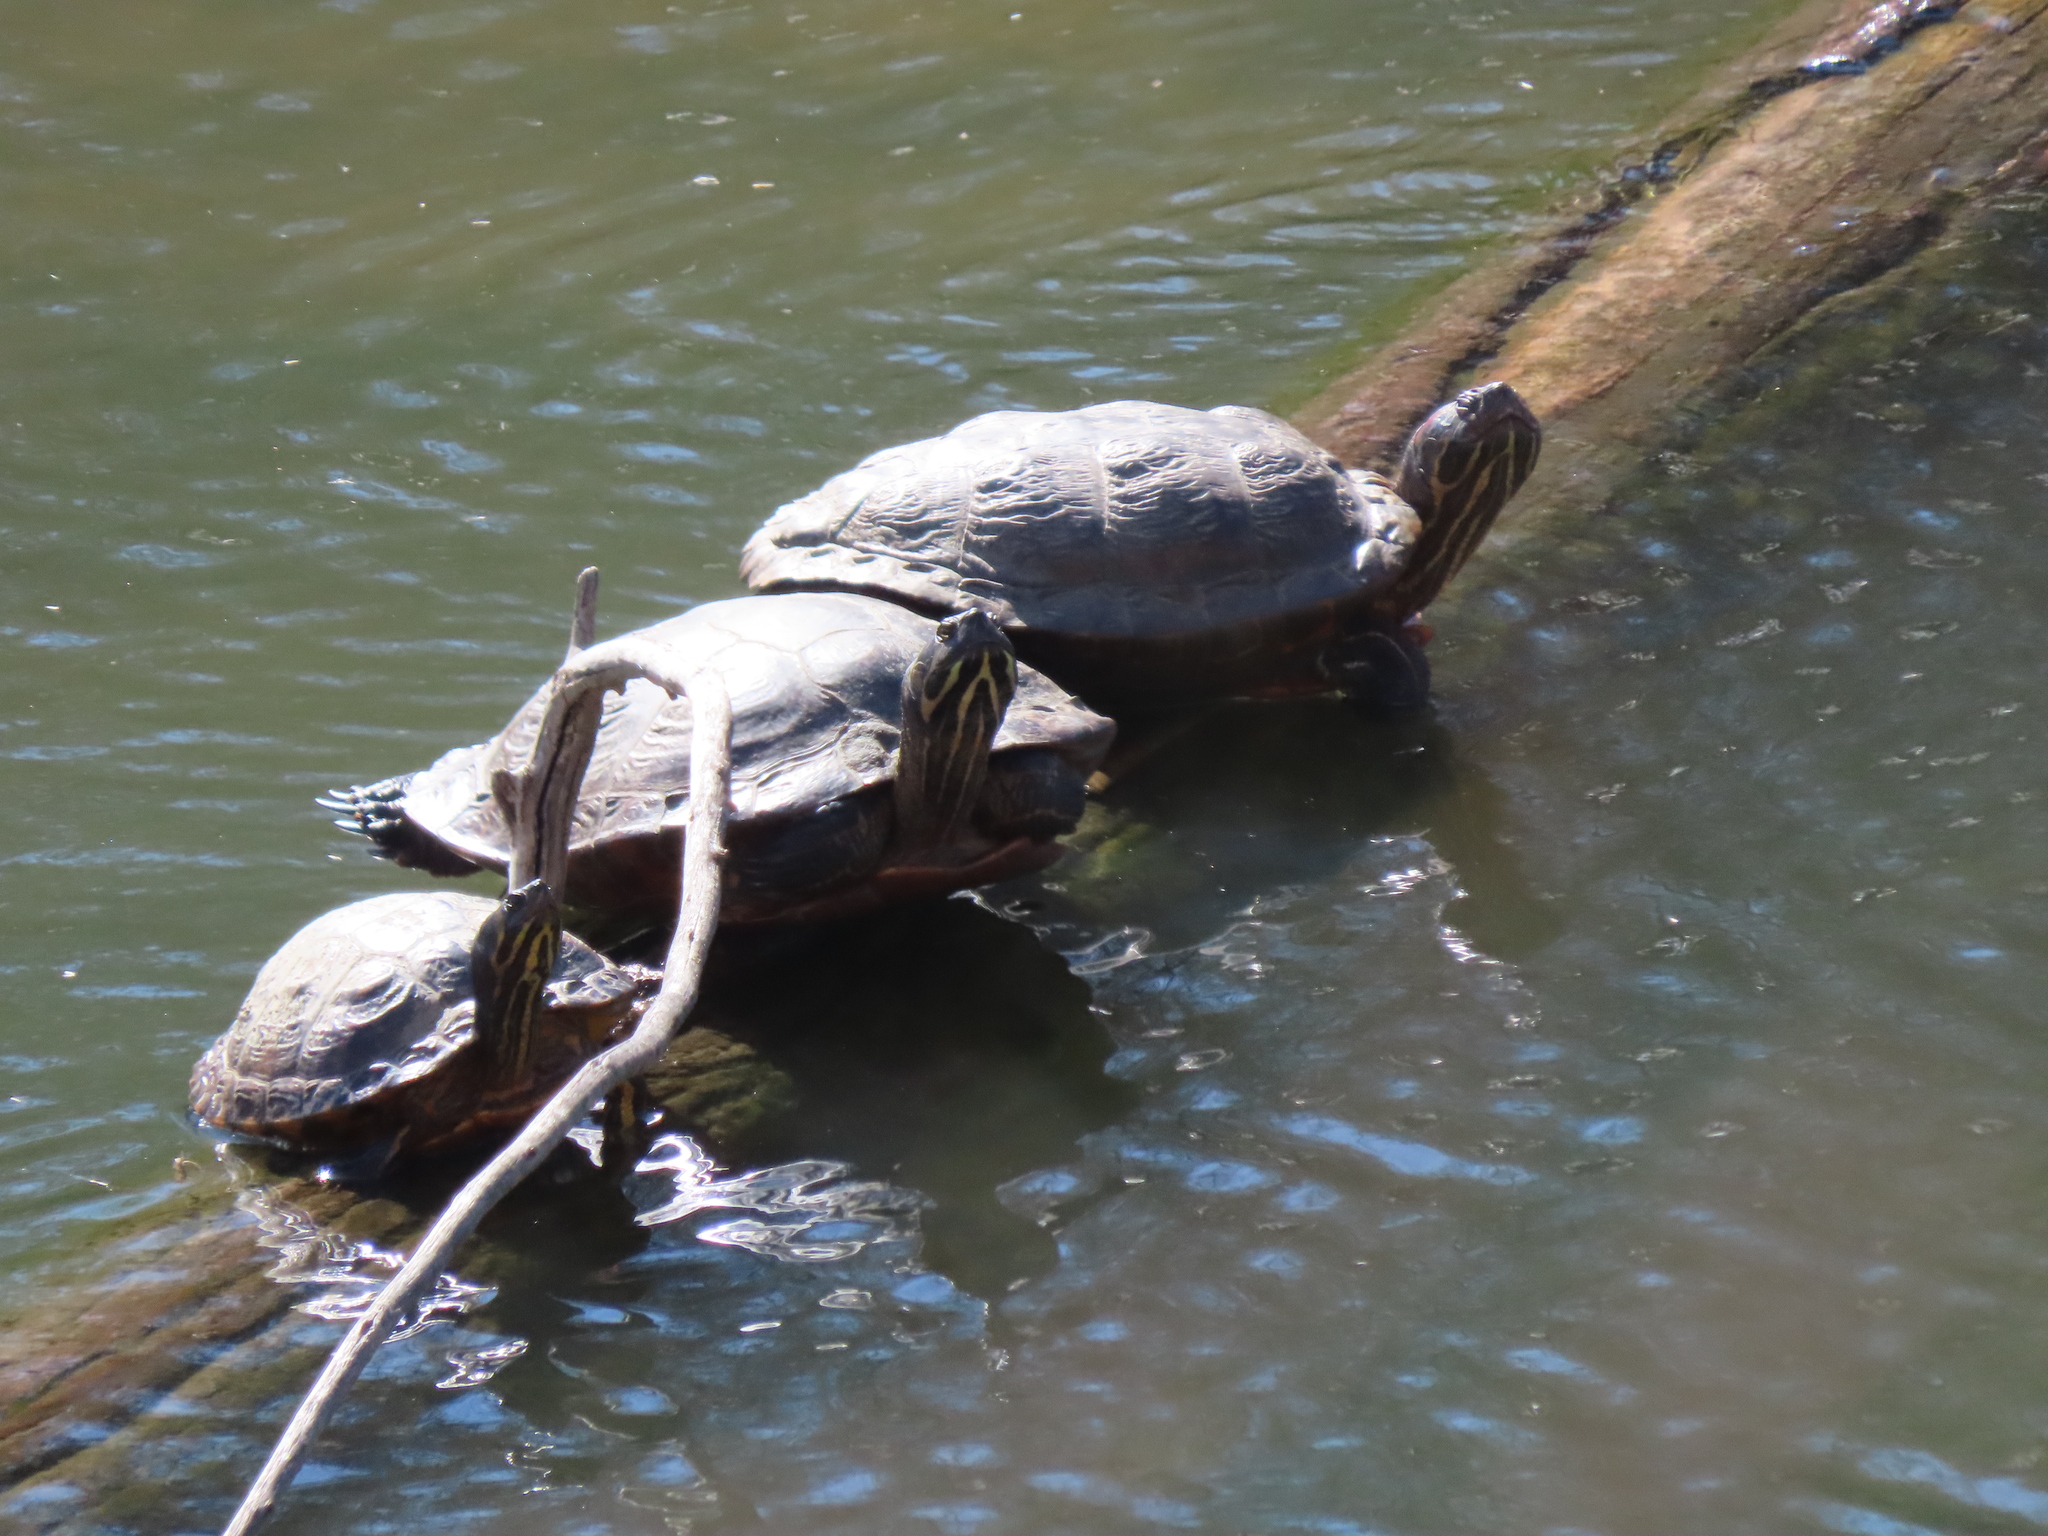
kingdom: Animalia
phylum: Chordata
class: Testudines
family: Emydidae
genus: Trachemys
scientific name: Trachemys scripta
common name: Slider
